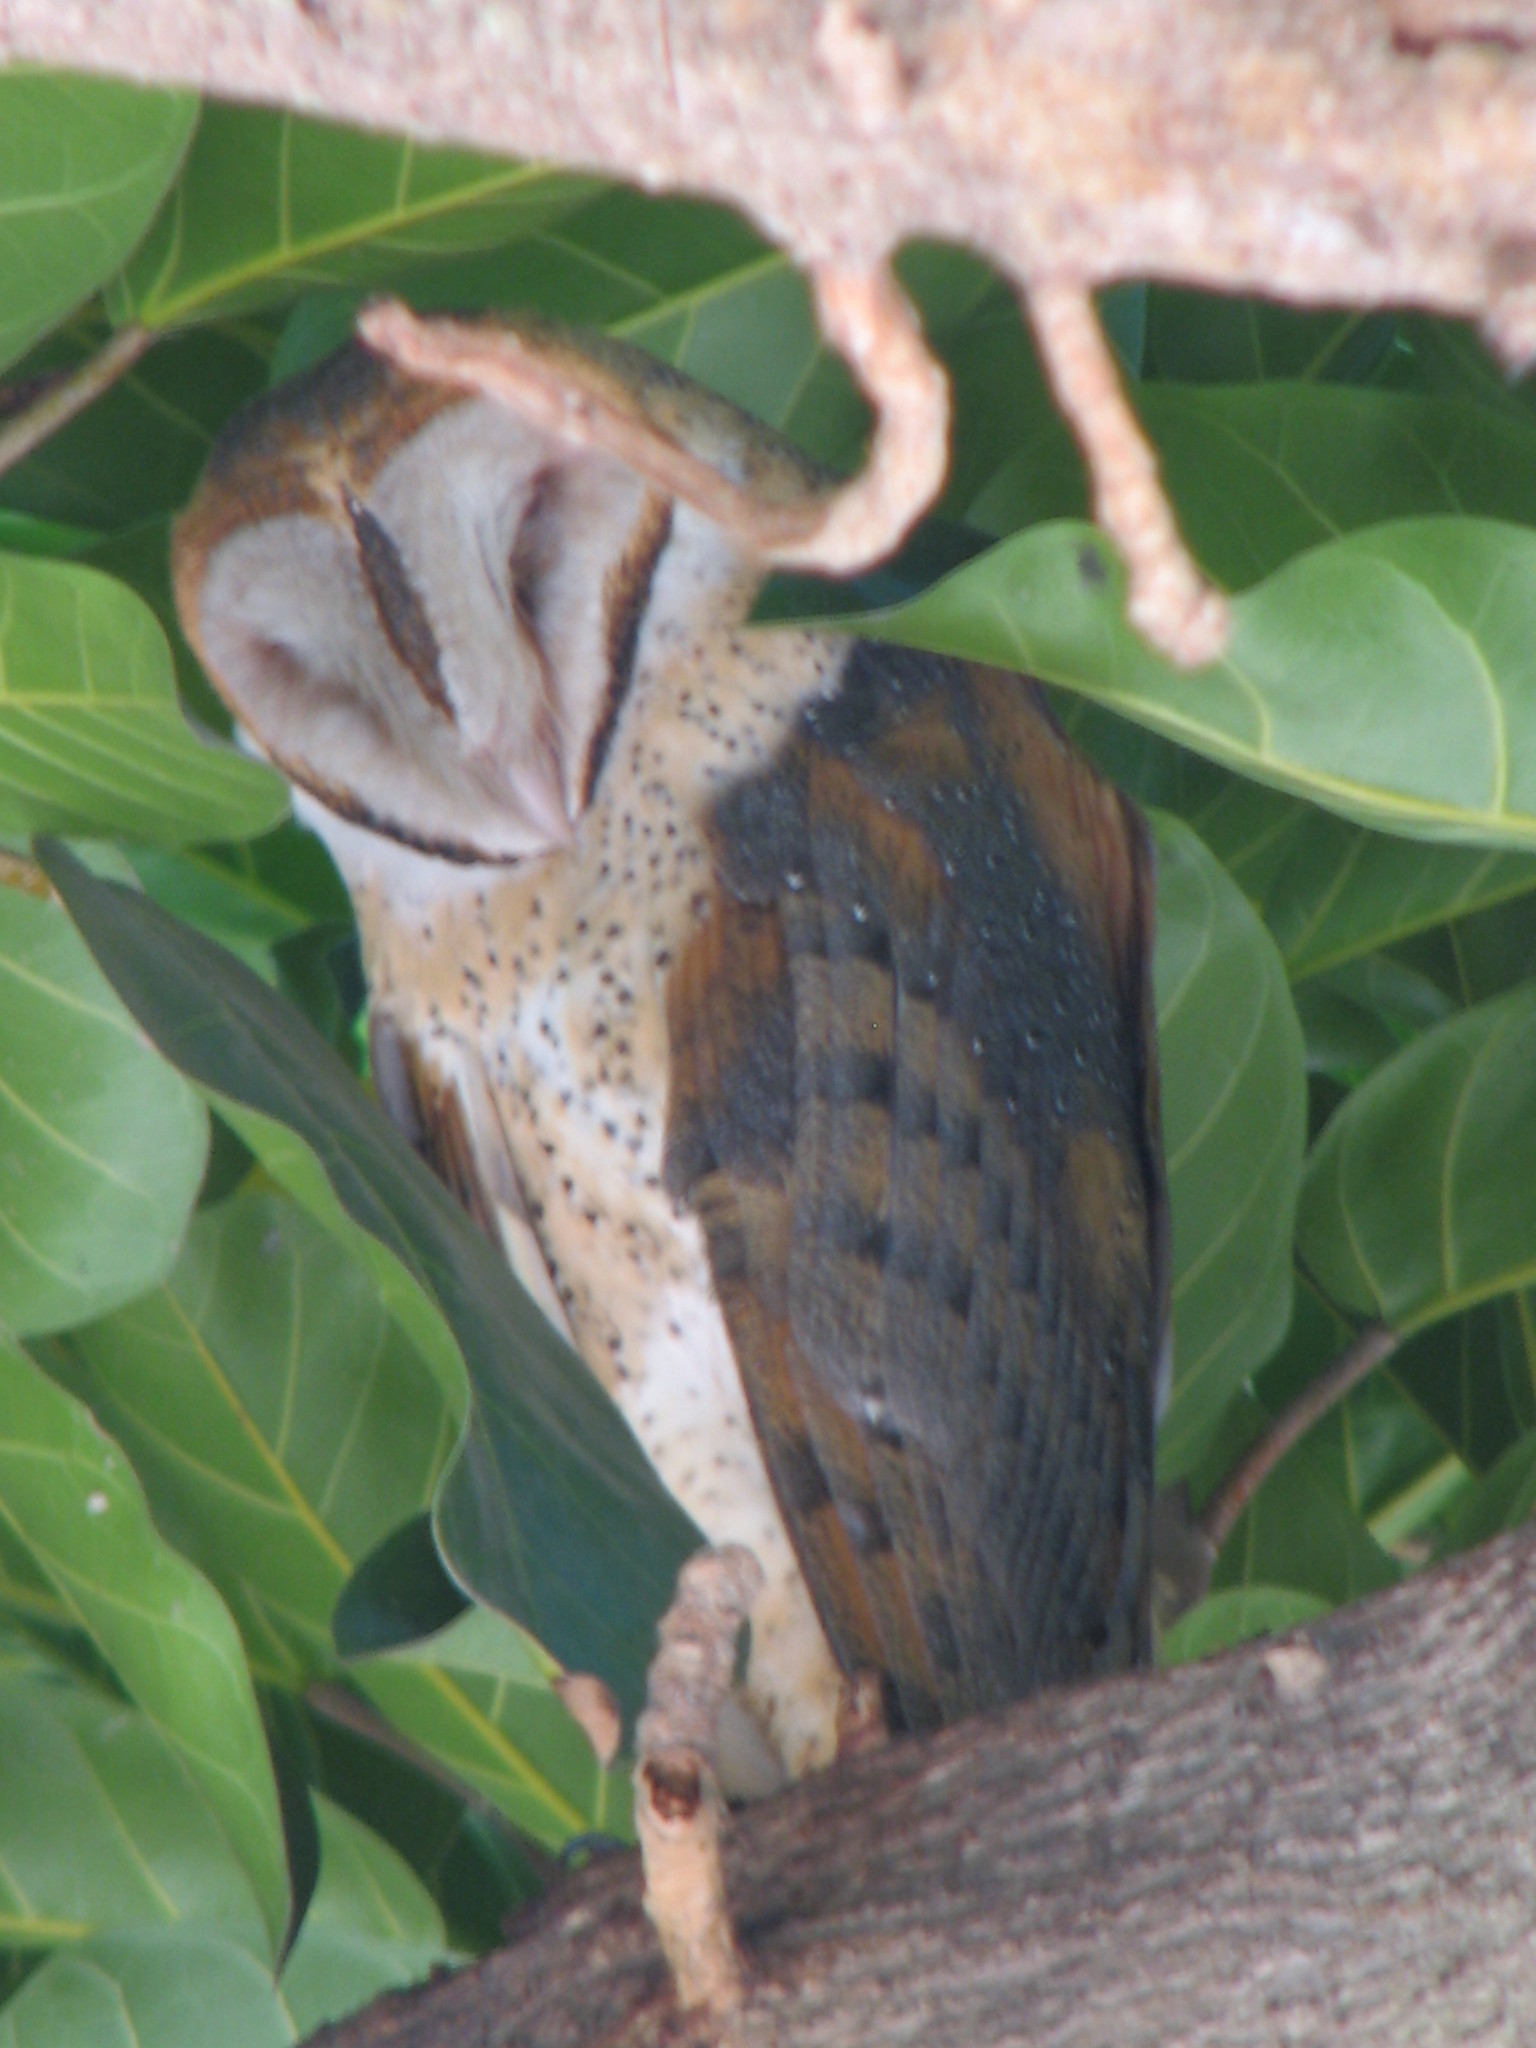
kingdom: Animalia
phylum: Chordata
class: Aves
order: Strigiformes
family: Tytonidae
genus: Tyto
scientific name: Tyto alba
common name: Barn owl
